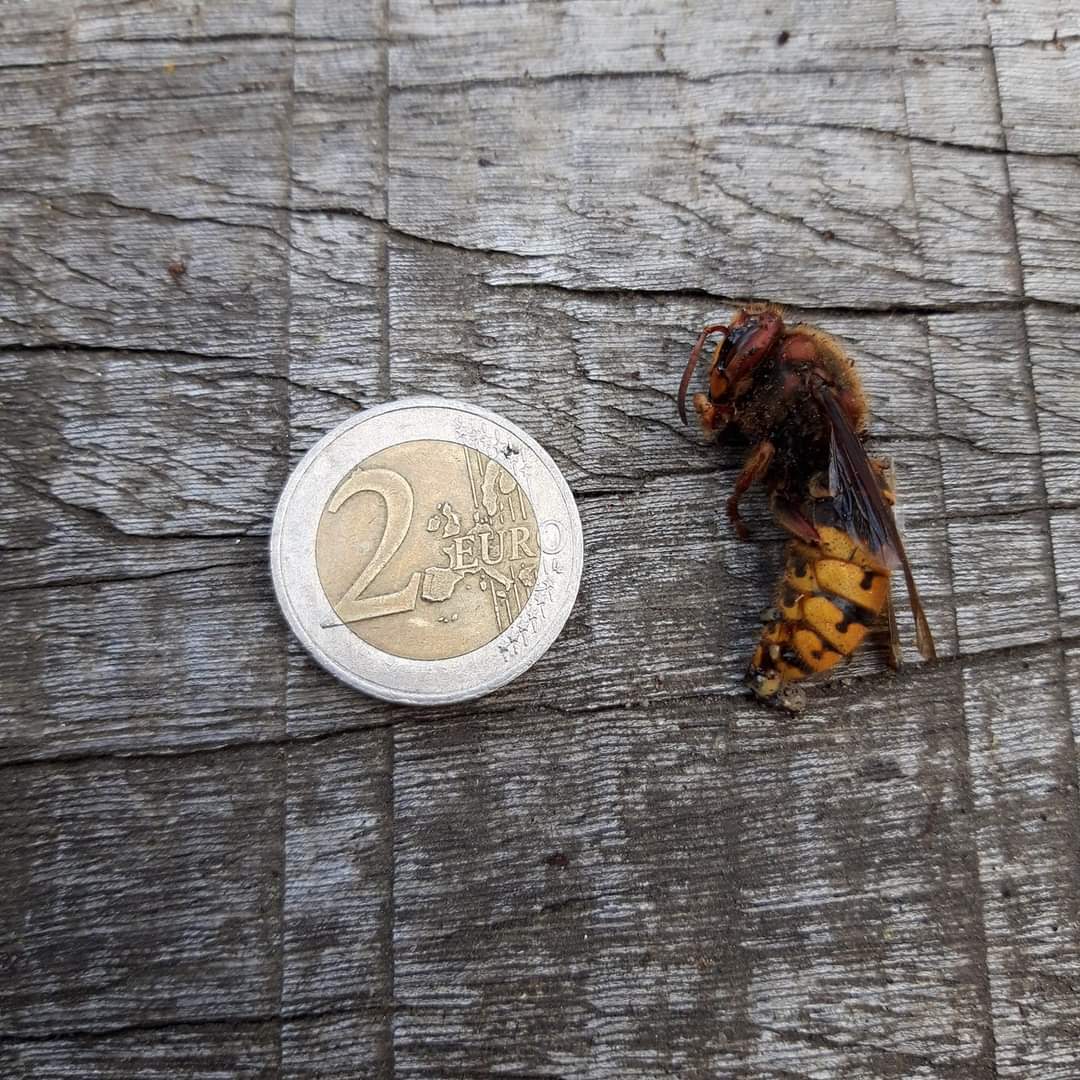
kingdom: Animalia
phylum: Arthropoda
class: Insecta
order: Hymenoptera
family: Vespidae
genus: Vespa
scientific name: Vespa crabro
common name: Hornet
